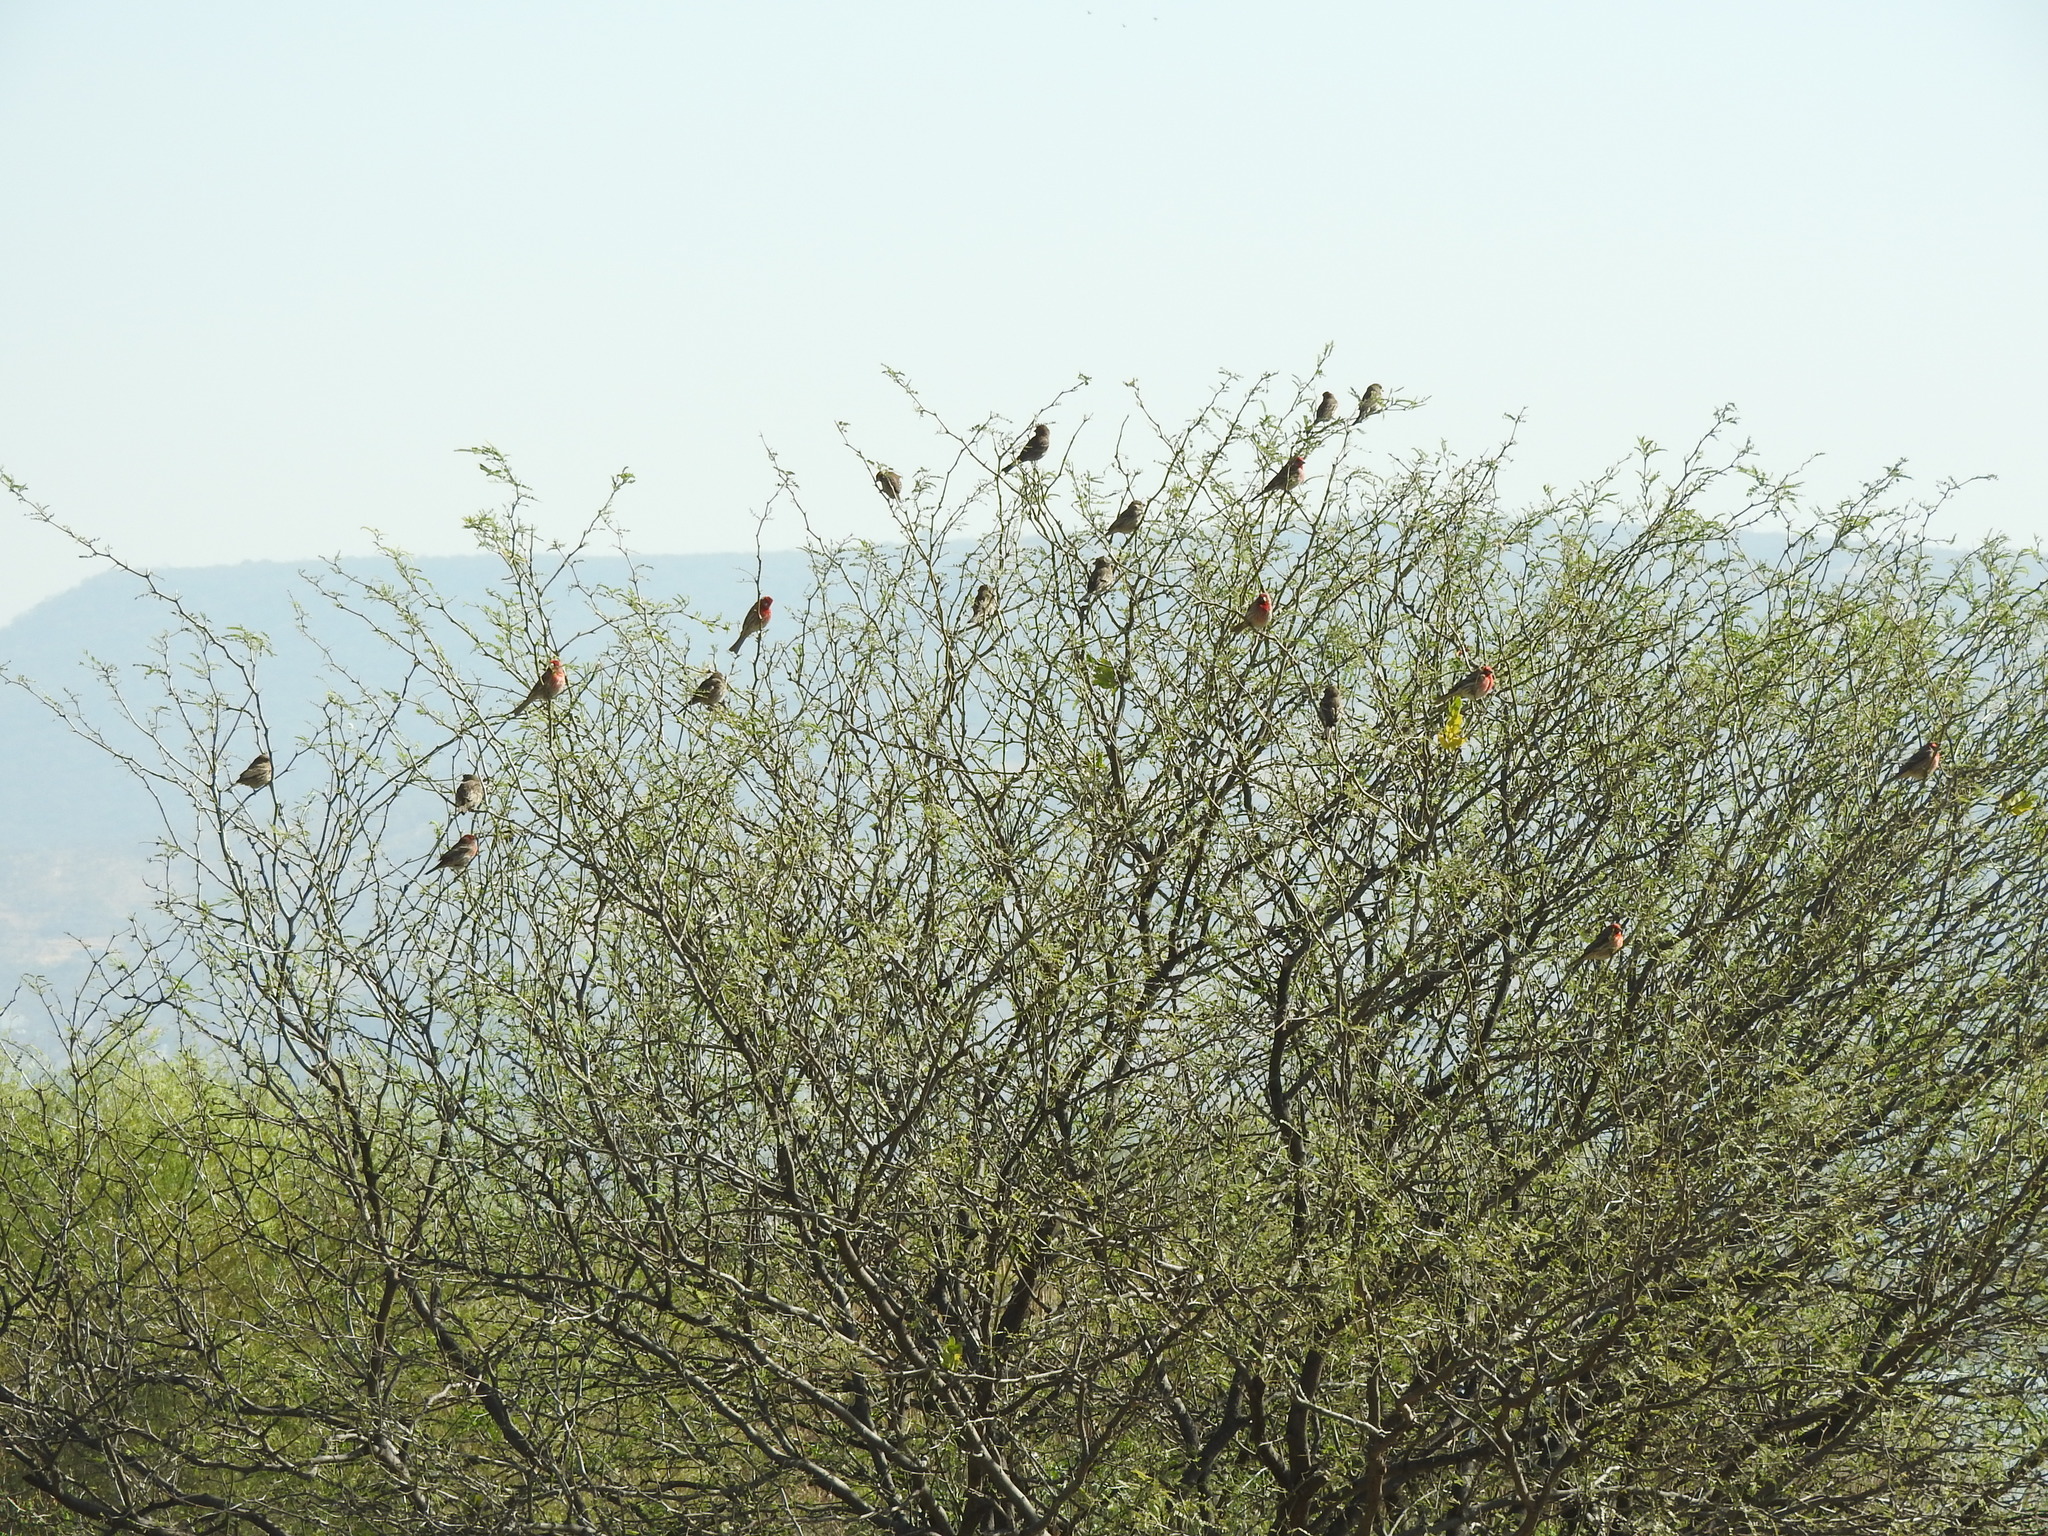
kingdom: Animalia
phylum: Chordata
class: Aves
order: Passeriformes
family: Fringillidae
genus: Haemorhous
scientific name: Haemorhous mexicanus
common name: House finch
